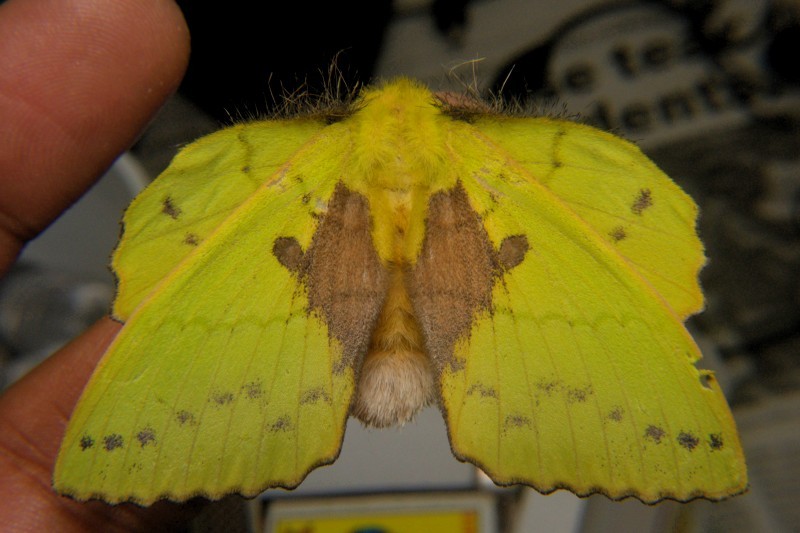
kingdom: Animalia
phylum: Arthropoda
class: Insecta
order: Lepidoptera
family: Lasiocampidae
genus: Trabala
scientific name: Trabala vishnou
